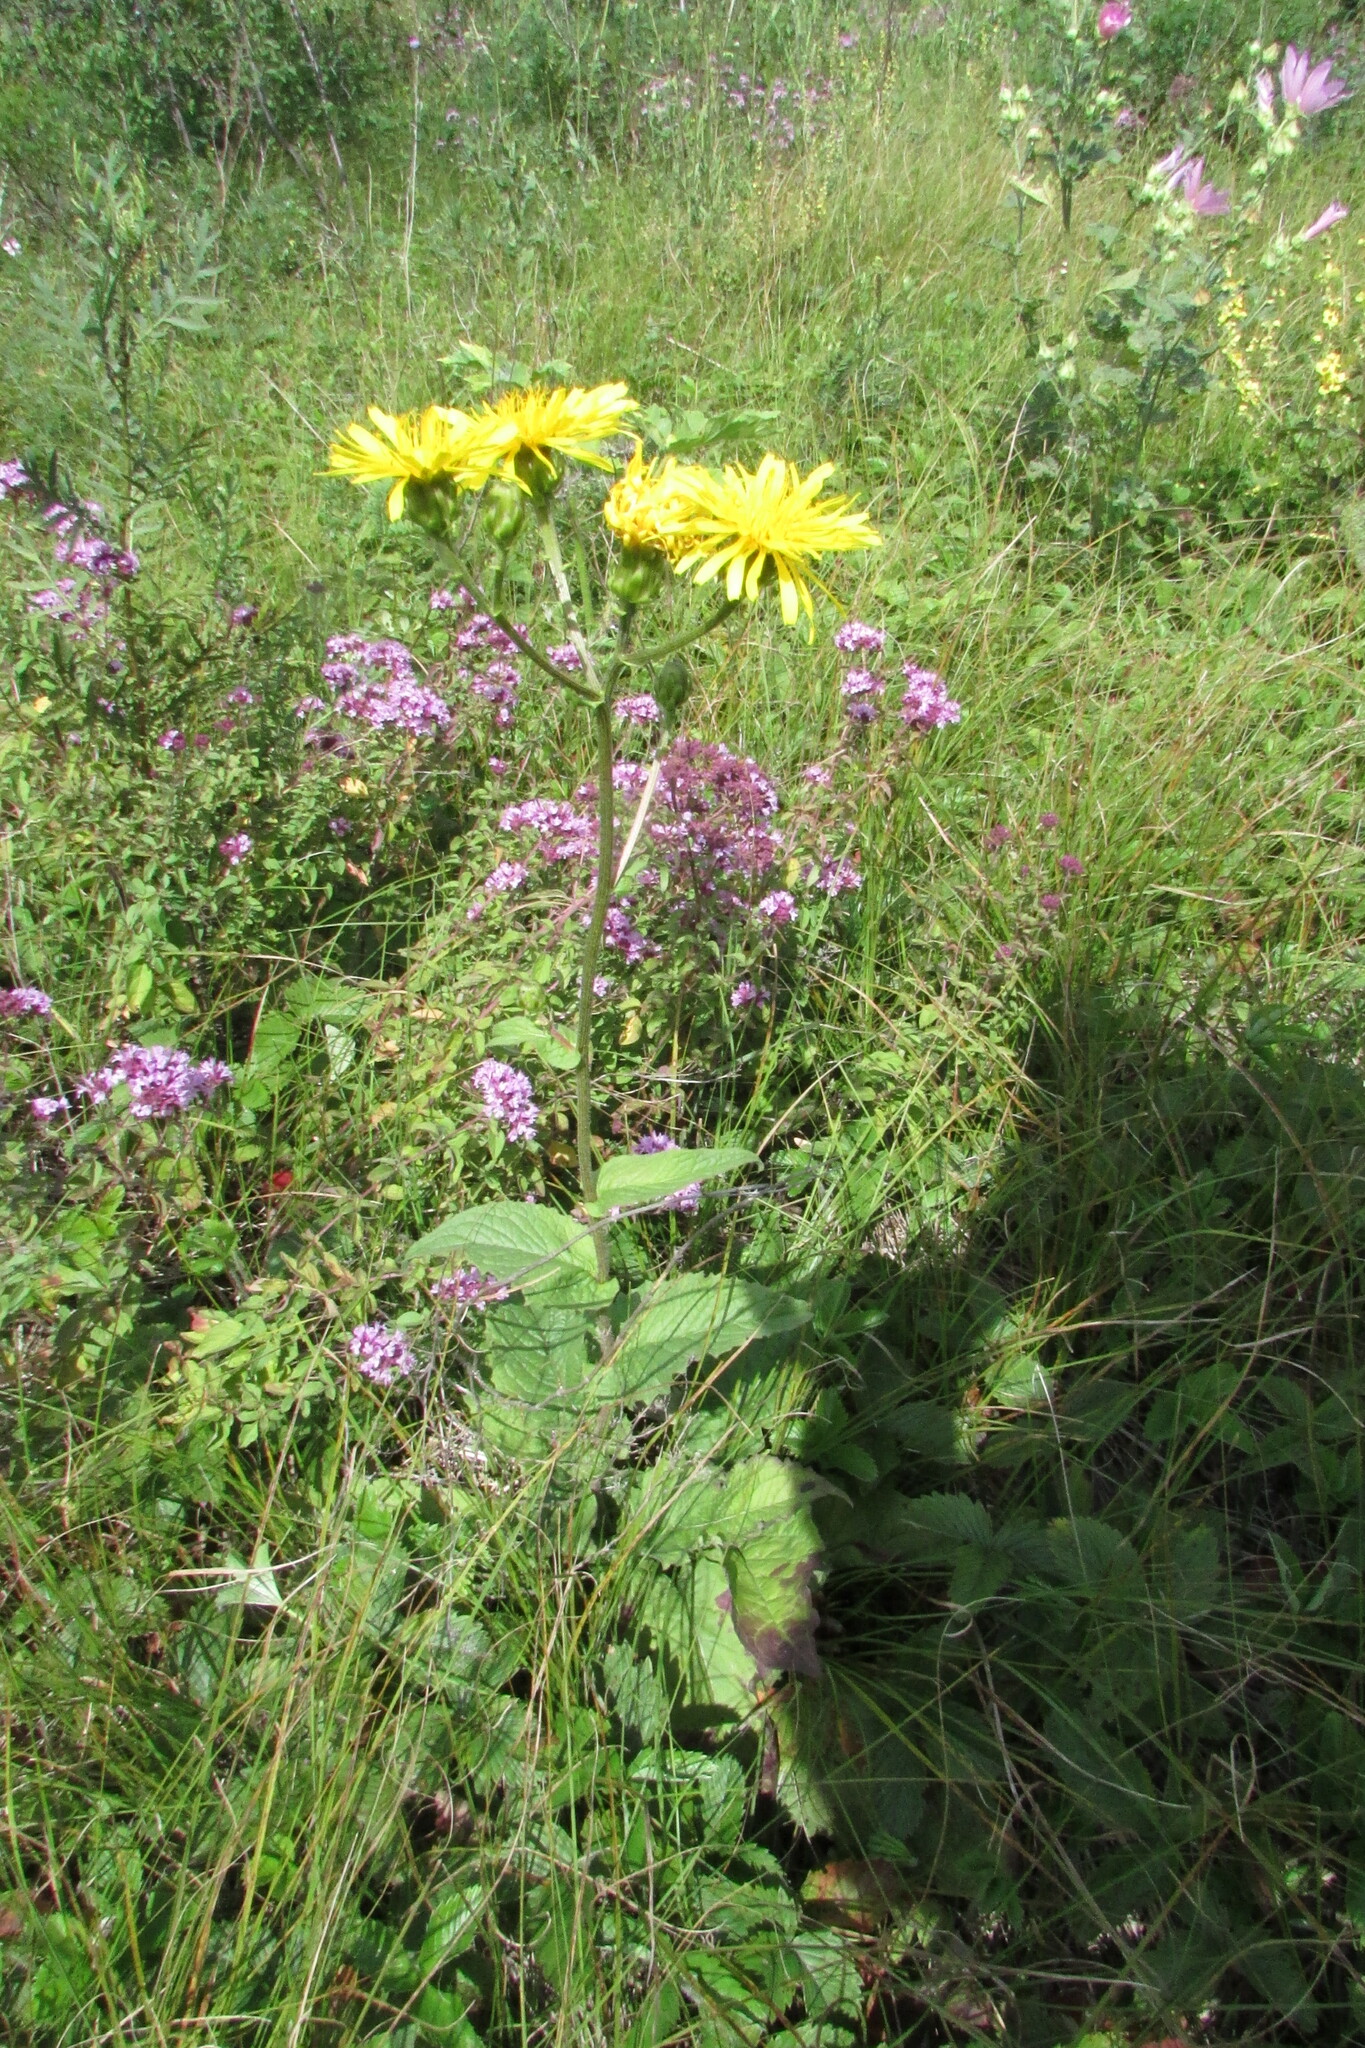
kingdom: Plantae
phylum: Tracheophyta
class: Magnoliopsida
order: Asterales
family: Asteraceae
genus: Crepis
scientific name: Crepis sibirica
